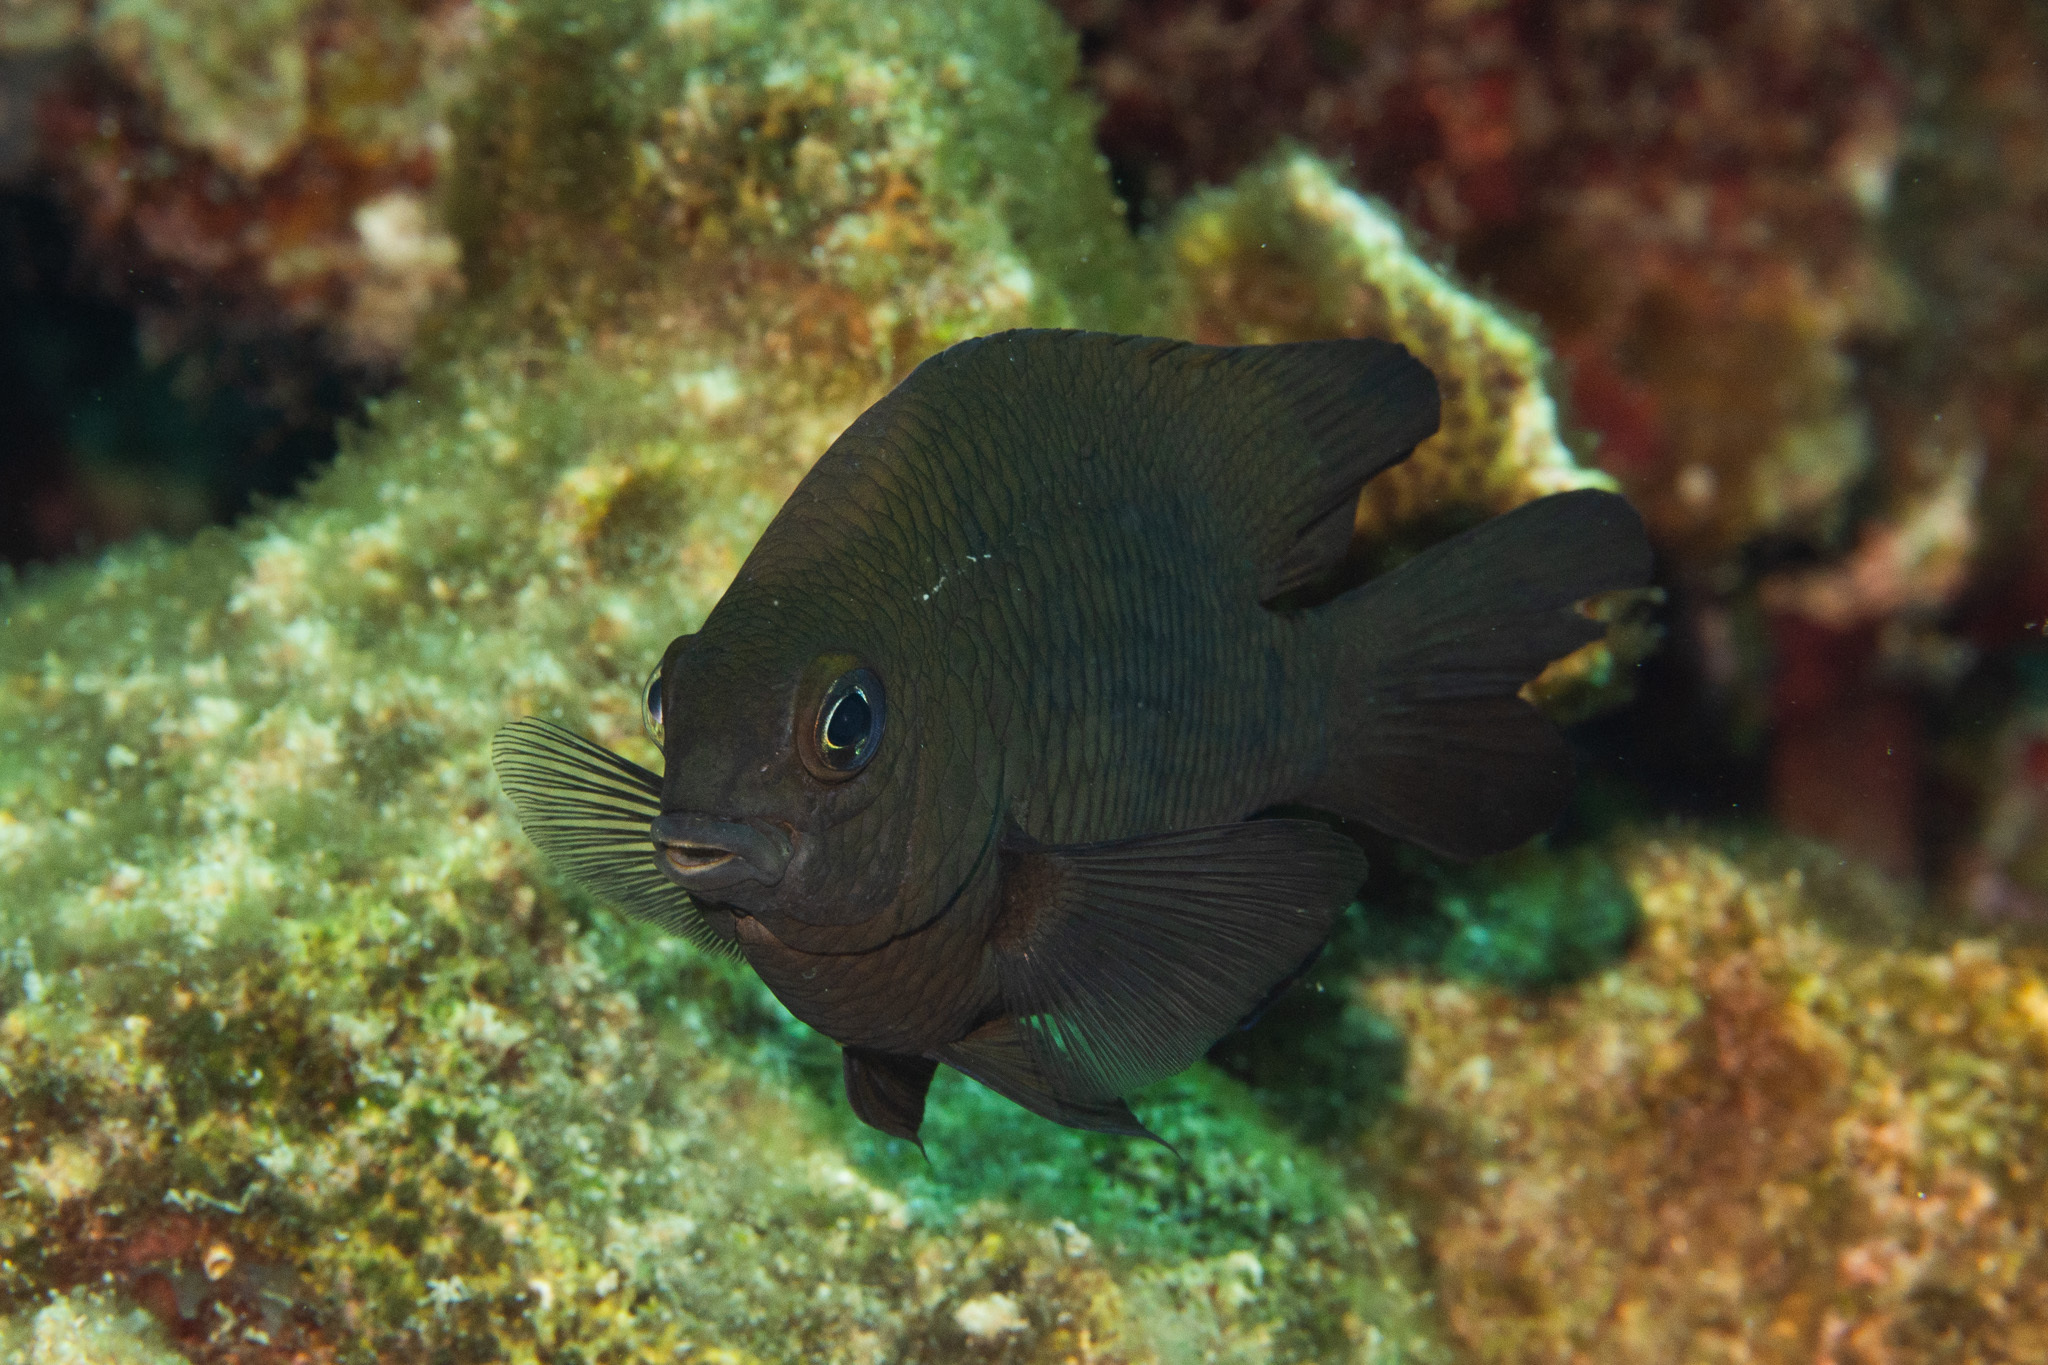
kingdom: Animalia
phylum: Chordata
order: Perciformes
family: Pomacentridae
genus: Stegastes
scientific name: Stegastes diencaeus
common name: Longfin damselfish
